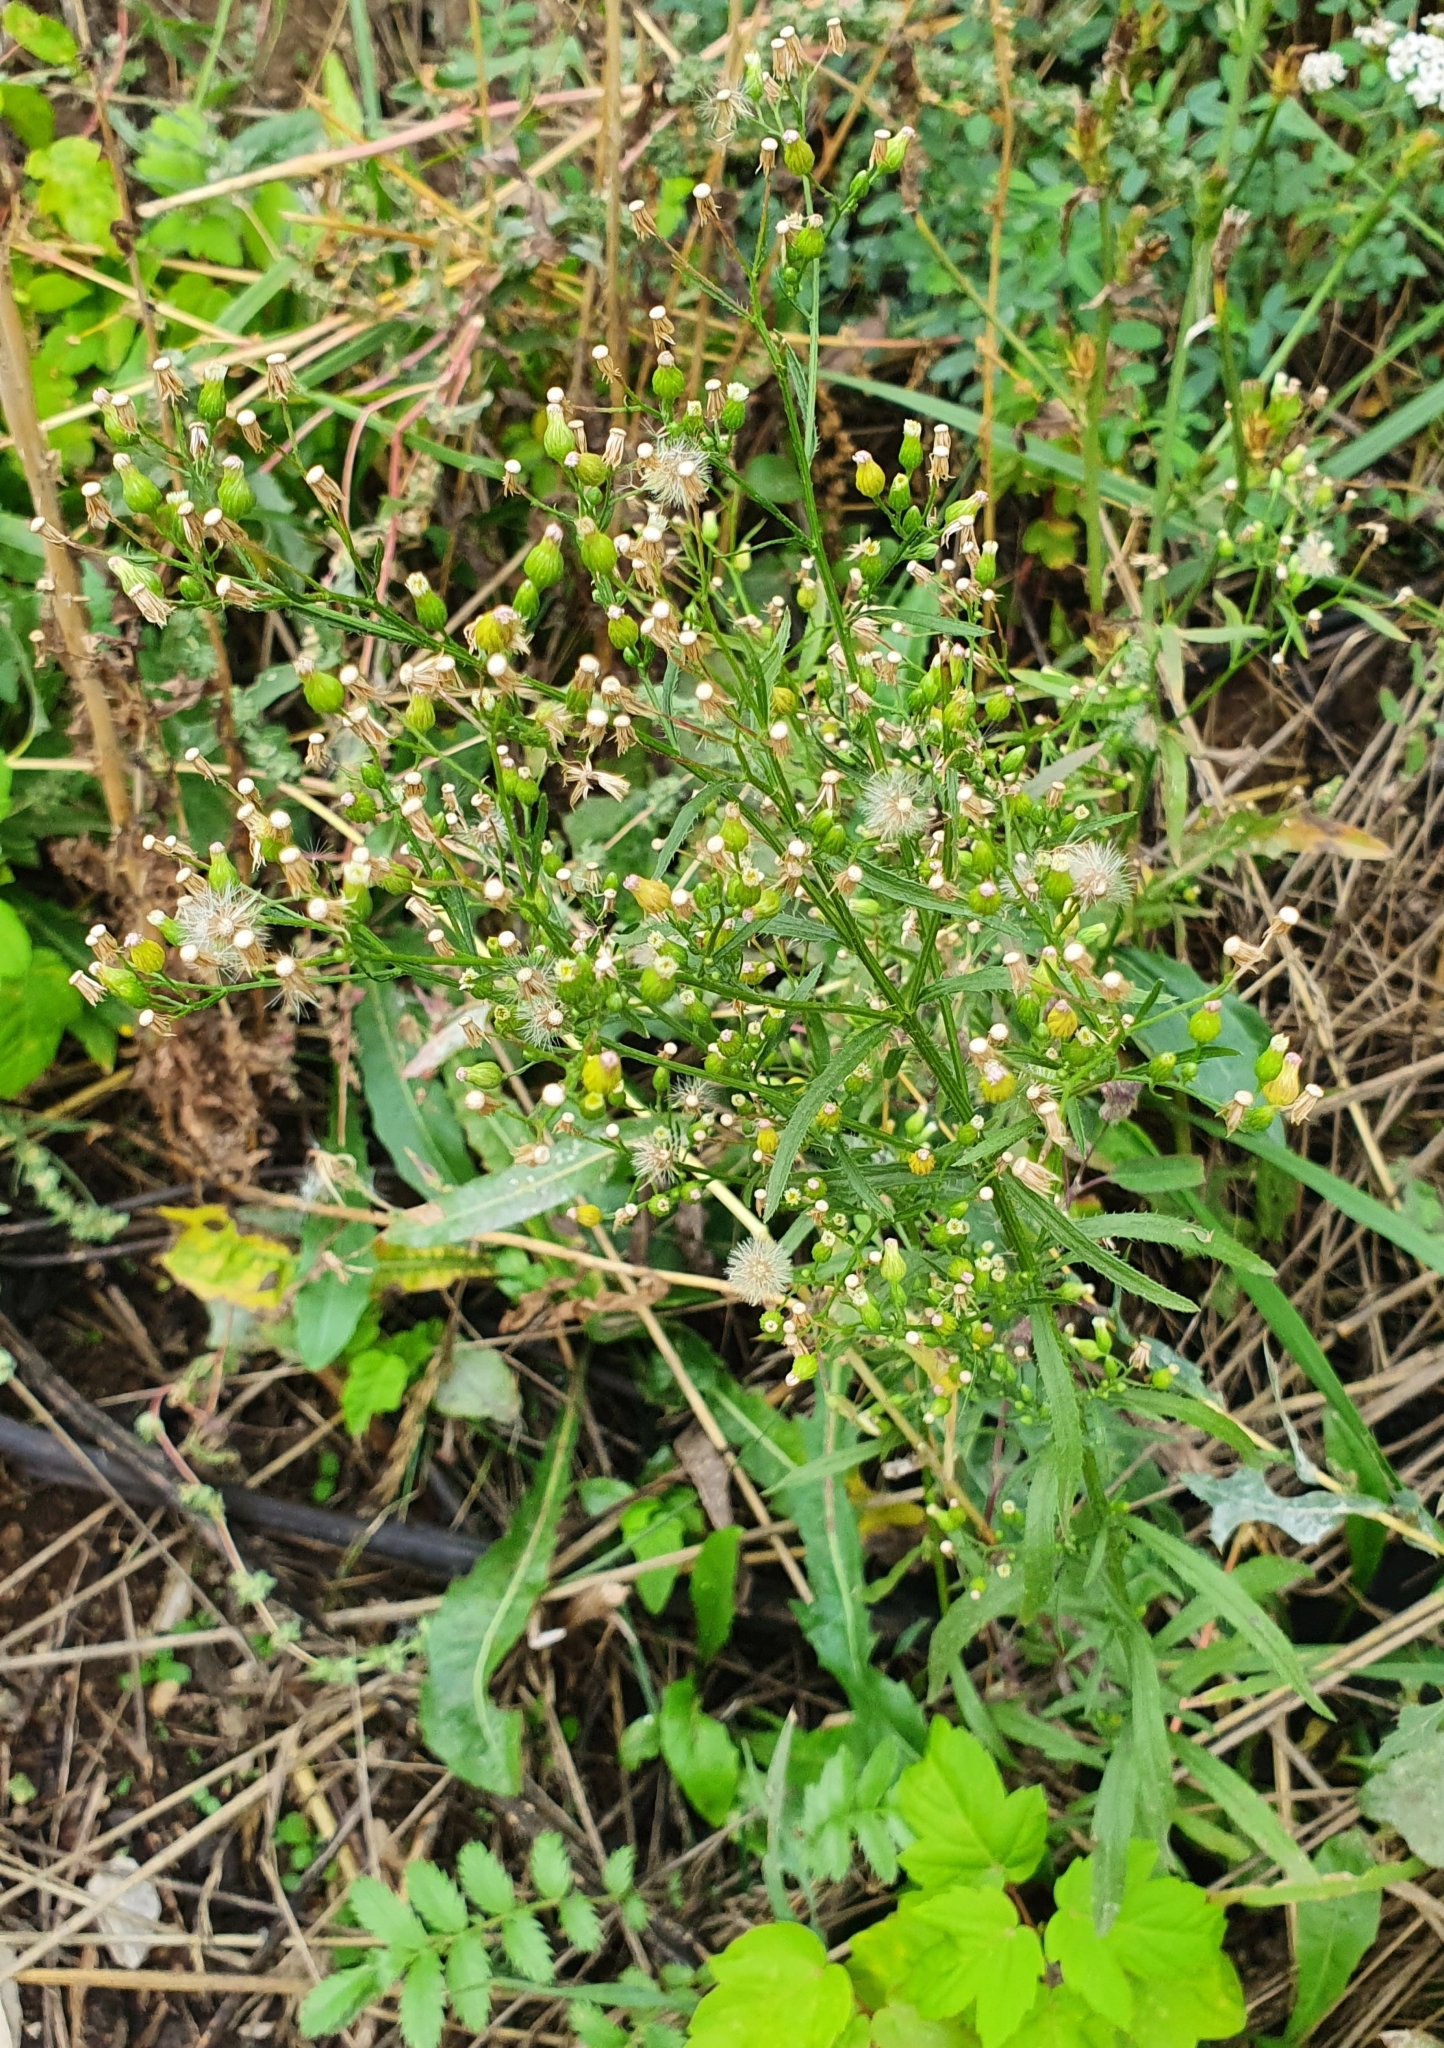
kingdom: Plantae
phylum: Tracheophyta
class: Magnoliopsida
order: Asterales
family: Asteraceae
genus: Erigeron
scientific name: Erigeron canadensis
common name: Canadian fleabane
